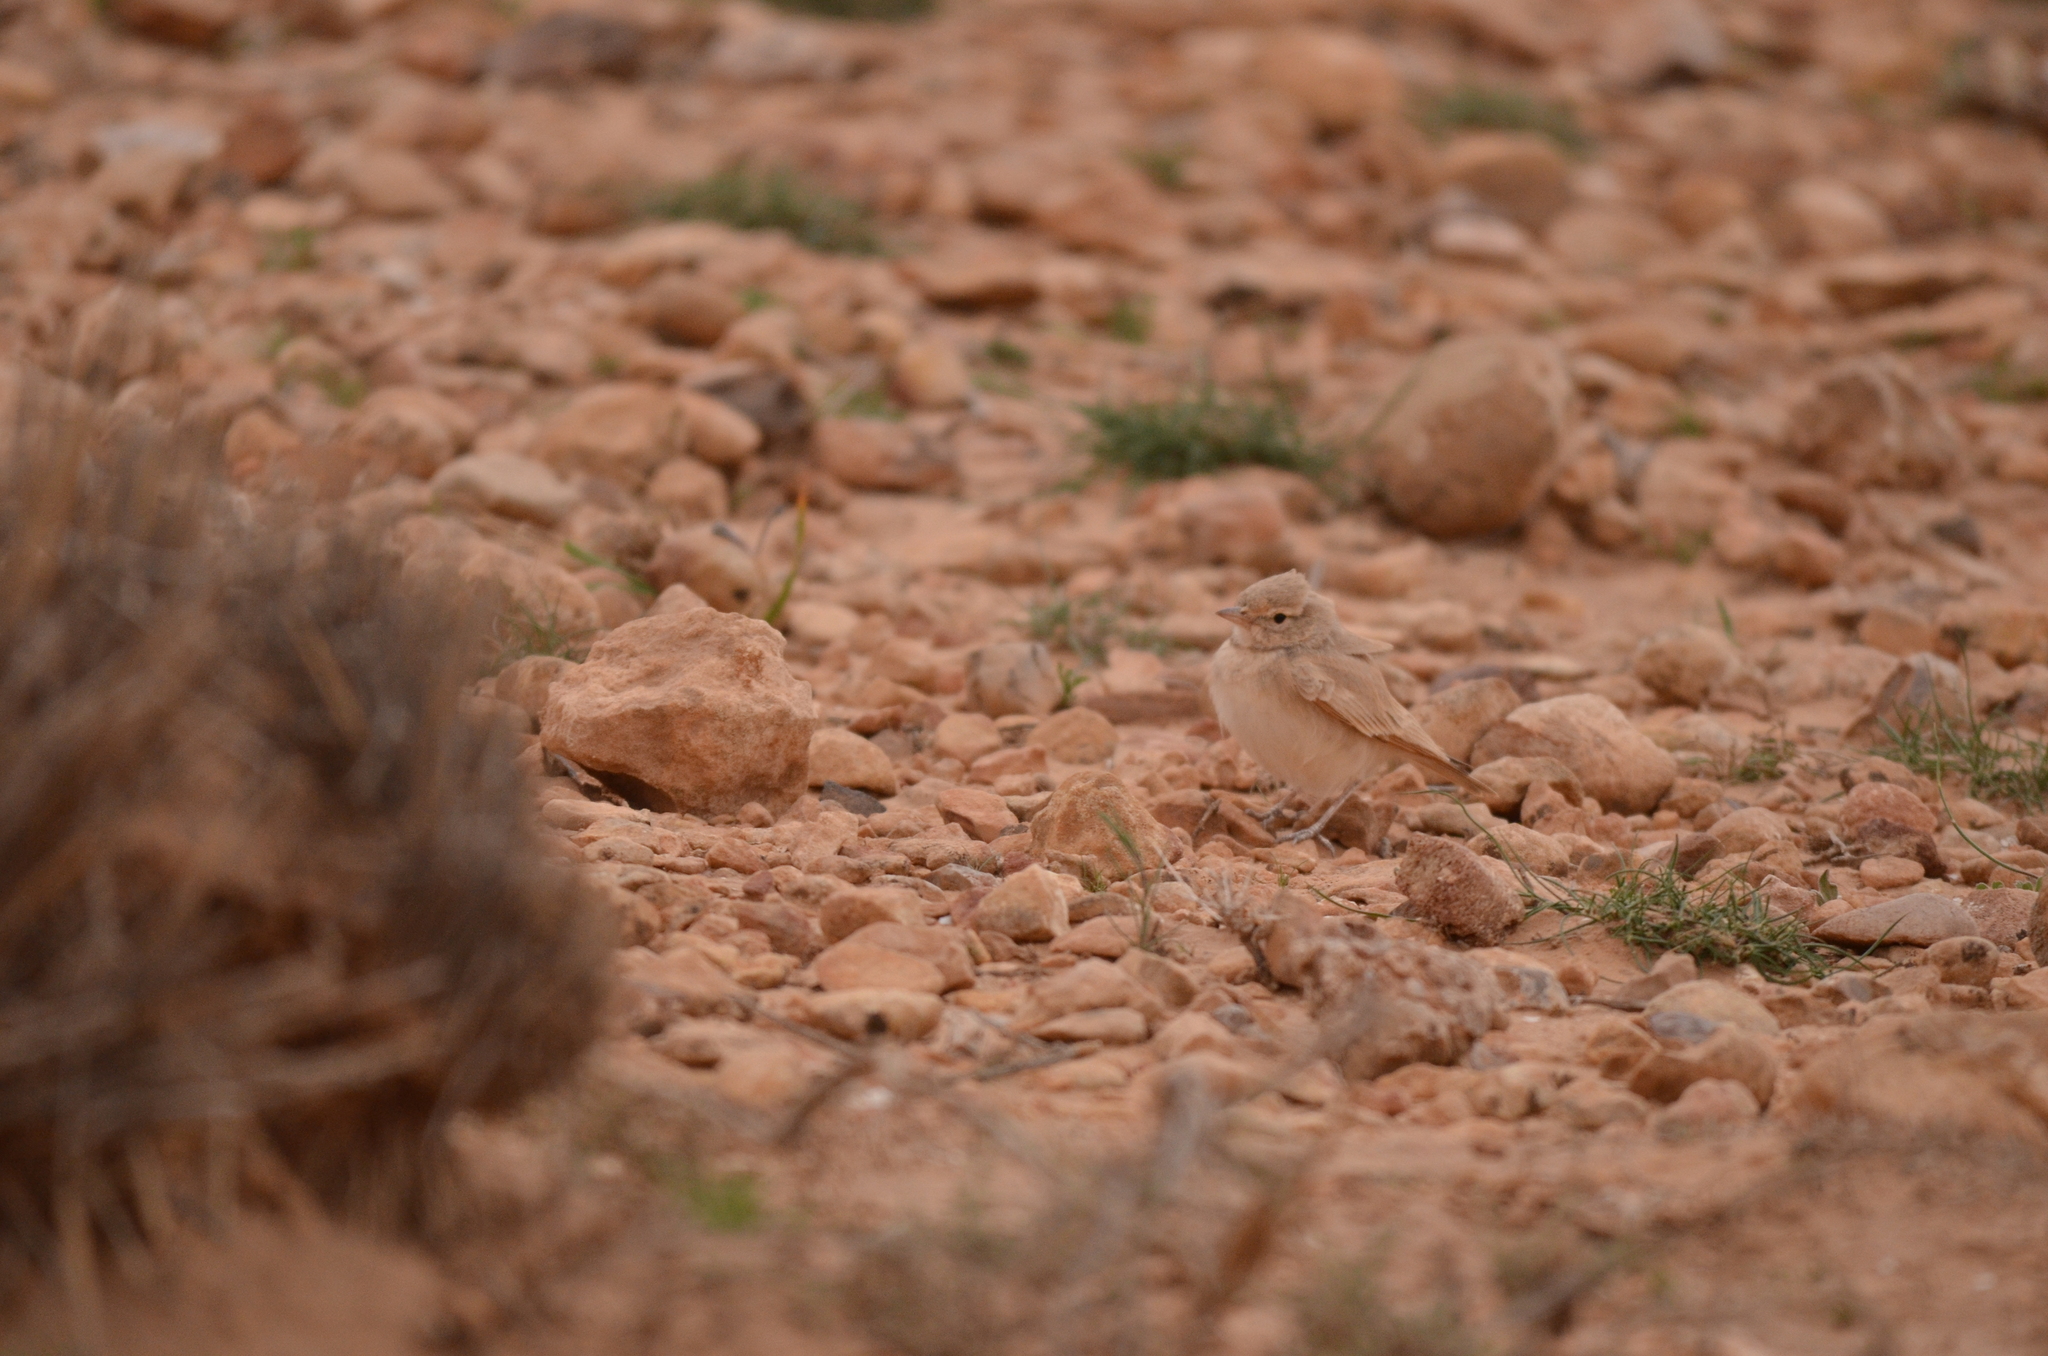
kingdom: Animalia
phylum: Chordata
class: Aves
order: Passeriformes
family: Alaudidae
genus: Ammomanes
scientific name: Ammomanes cinctura
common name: Bar-tailed lark
